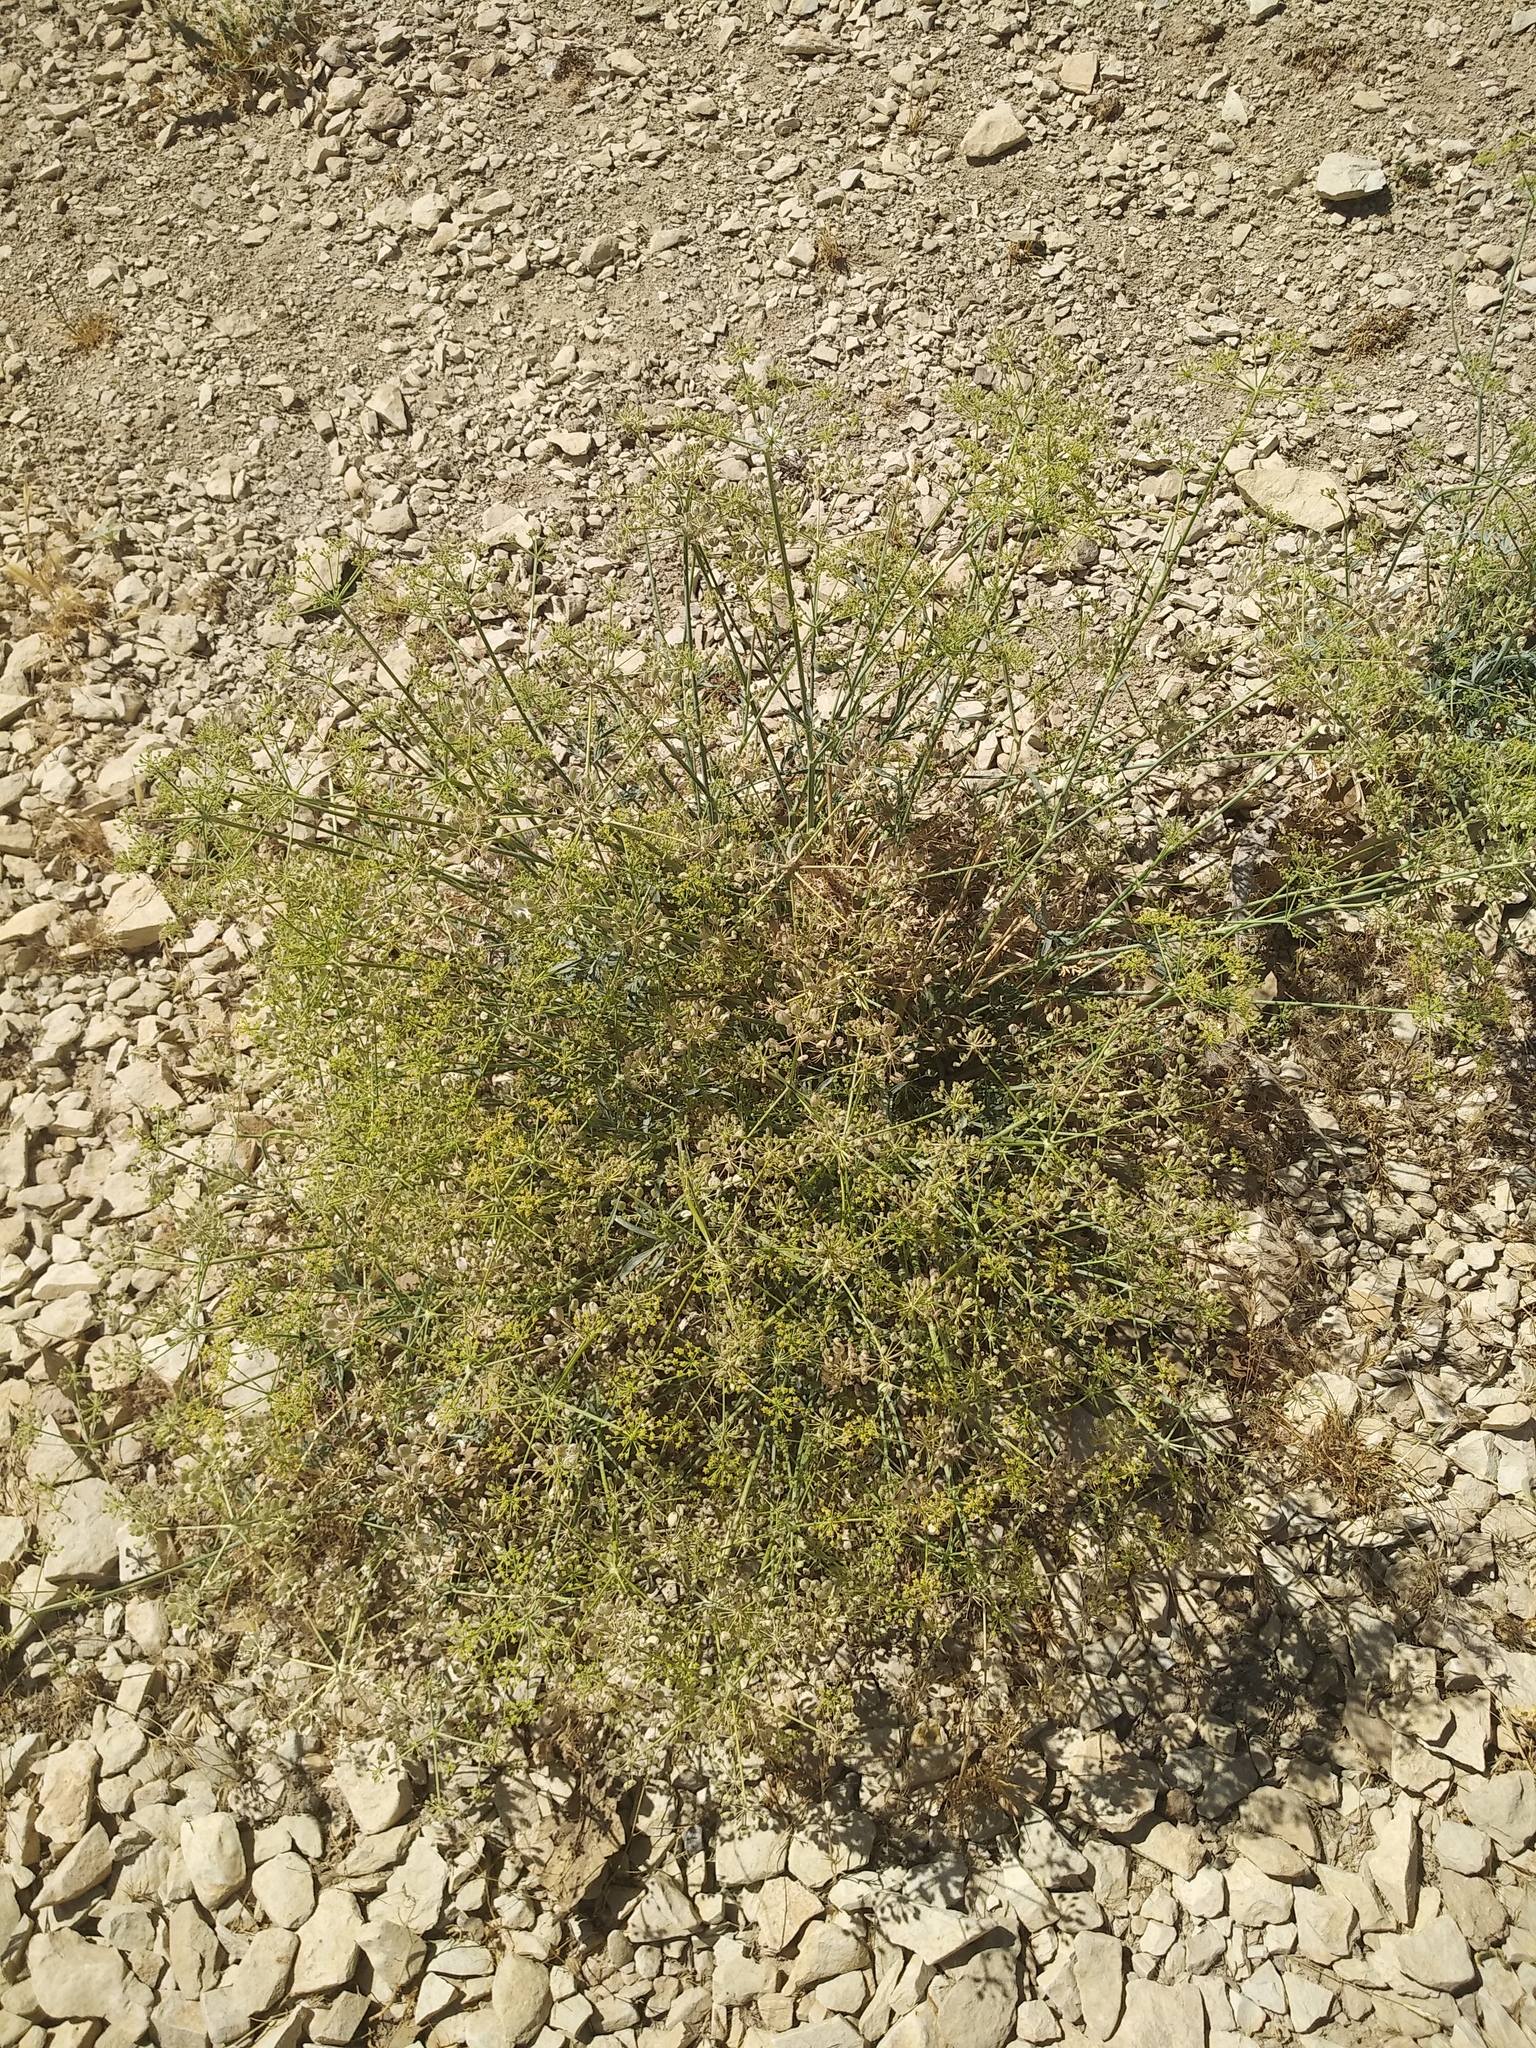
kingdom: Plantae
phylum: Tracheophyta
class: Magnoliopsida
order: Apiales
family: Apiaceae
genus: Ducrosia
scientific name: Ducrosia anethifolia
